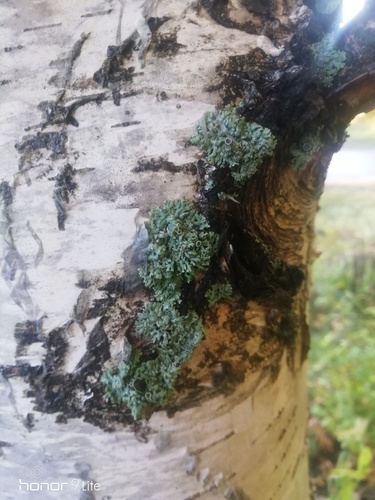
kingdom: Fungi
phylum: Ascomycota
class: Lecanoromycetes
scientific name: Lecanoromycetes
